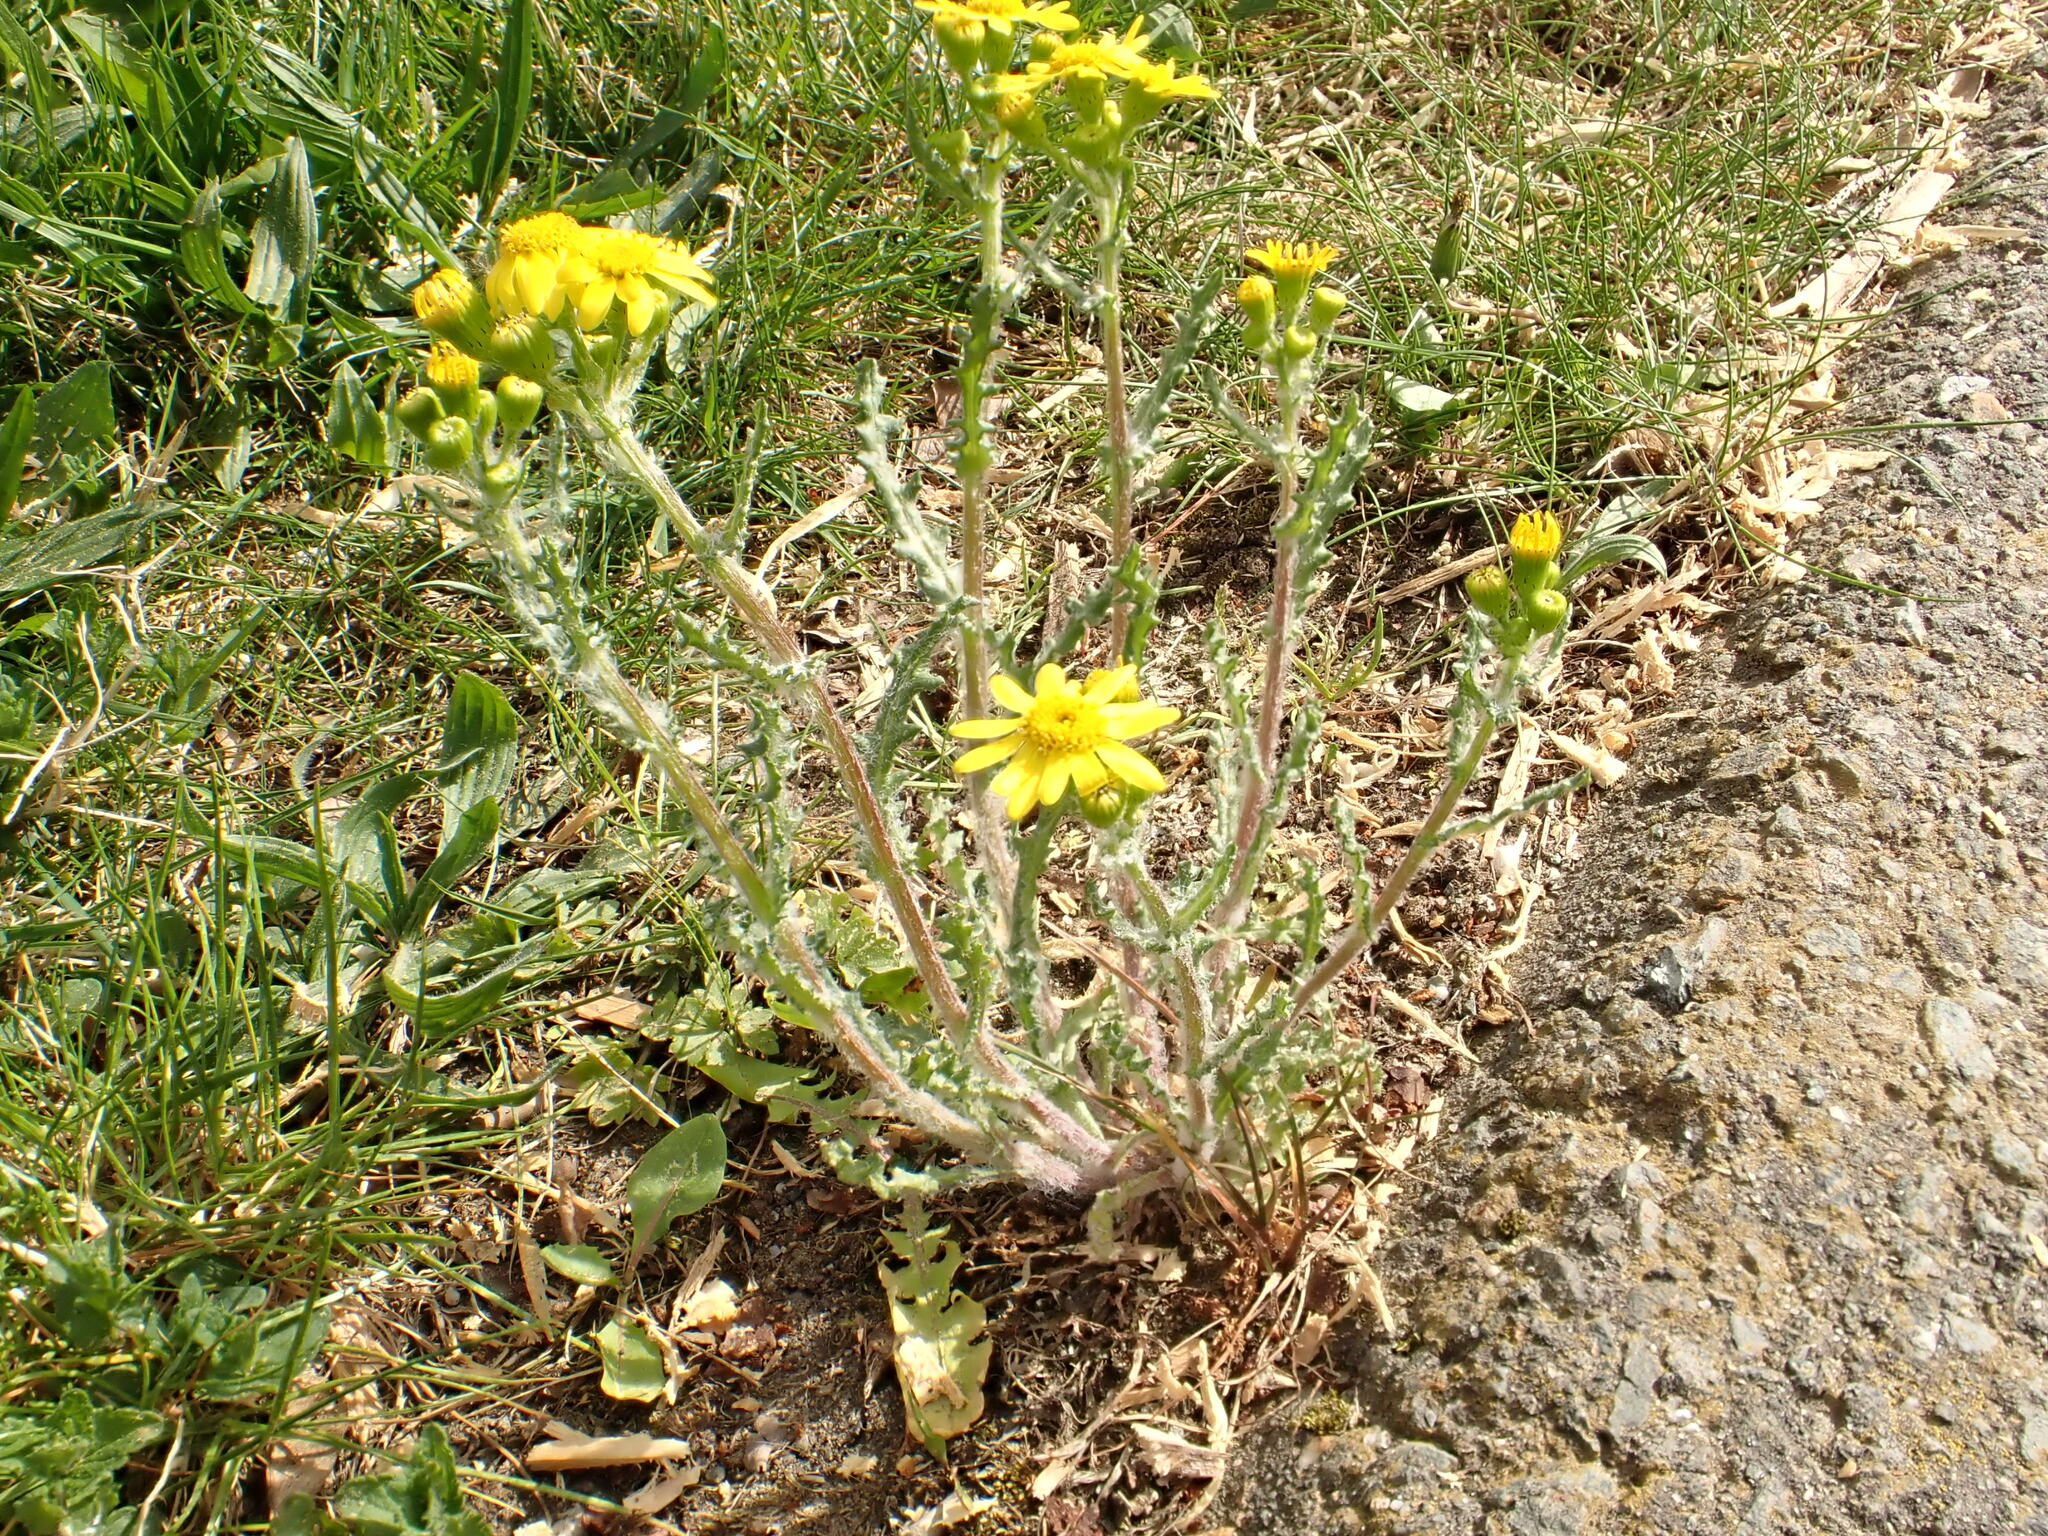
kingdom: Plantae
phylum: Tracheophyta
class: Magnoliopsida
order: Asterales
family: Asteraceae
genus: Senecio
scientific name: Senecio vernalis
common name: Eastern groundsel
